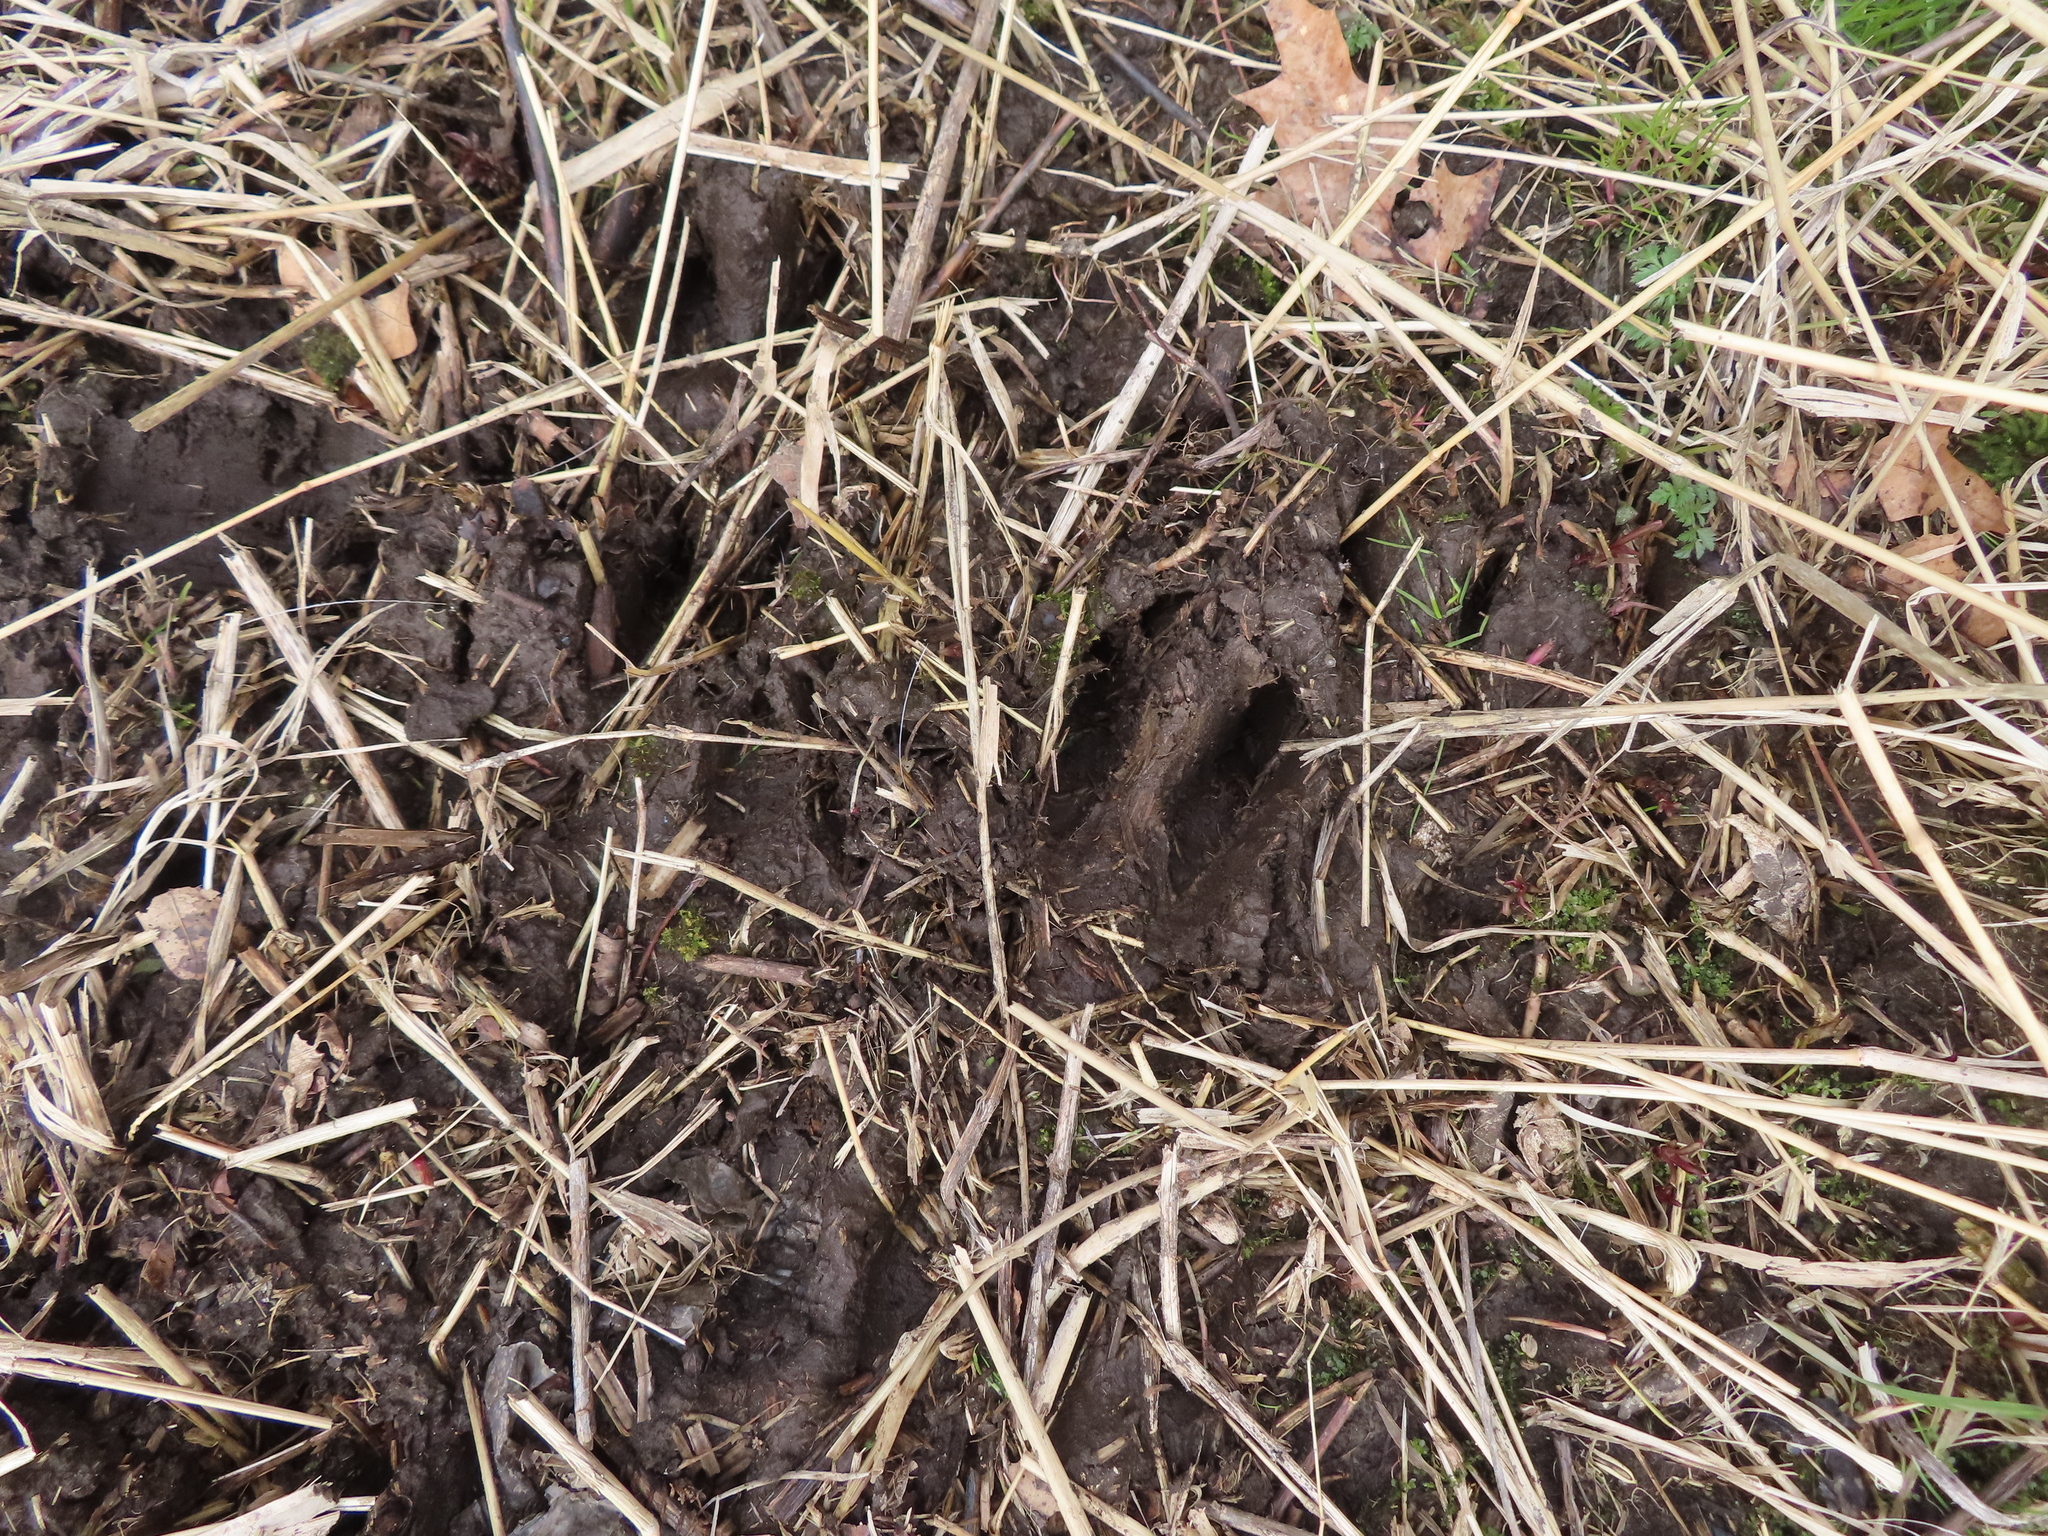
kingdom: Animalia
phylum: Chordata
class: Mammalia
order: Artiodactyla
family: Cervidae
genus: Odocoileus
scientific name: Odocoileus virginianus
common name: White-tailed deer
